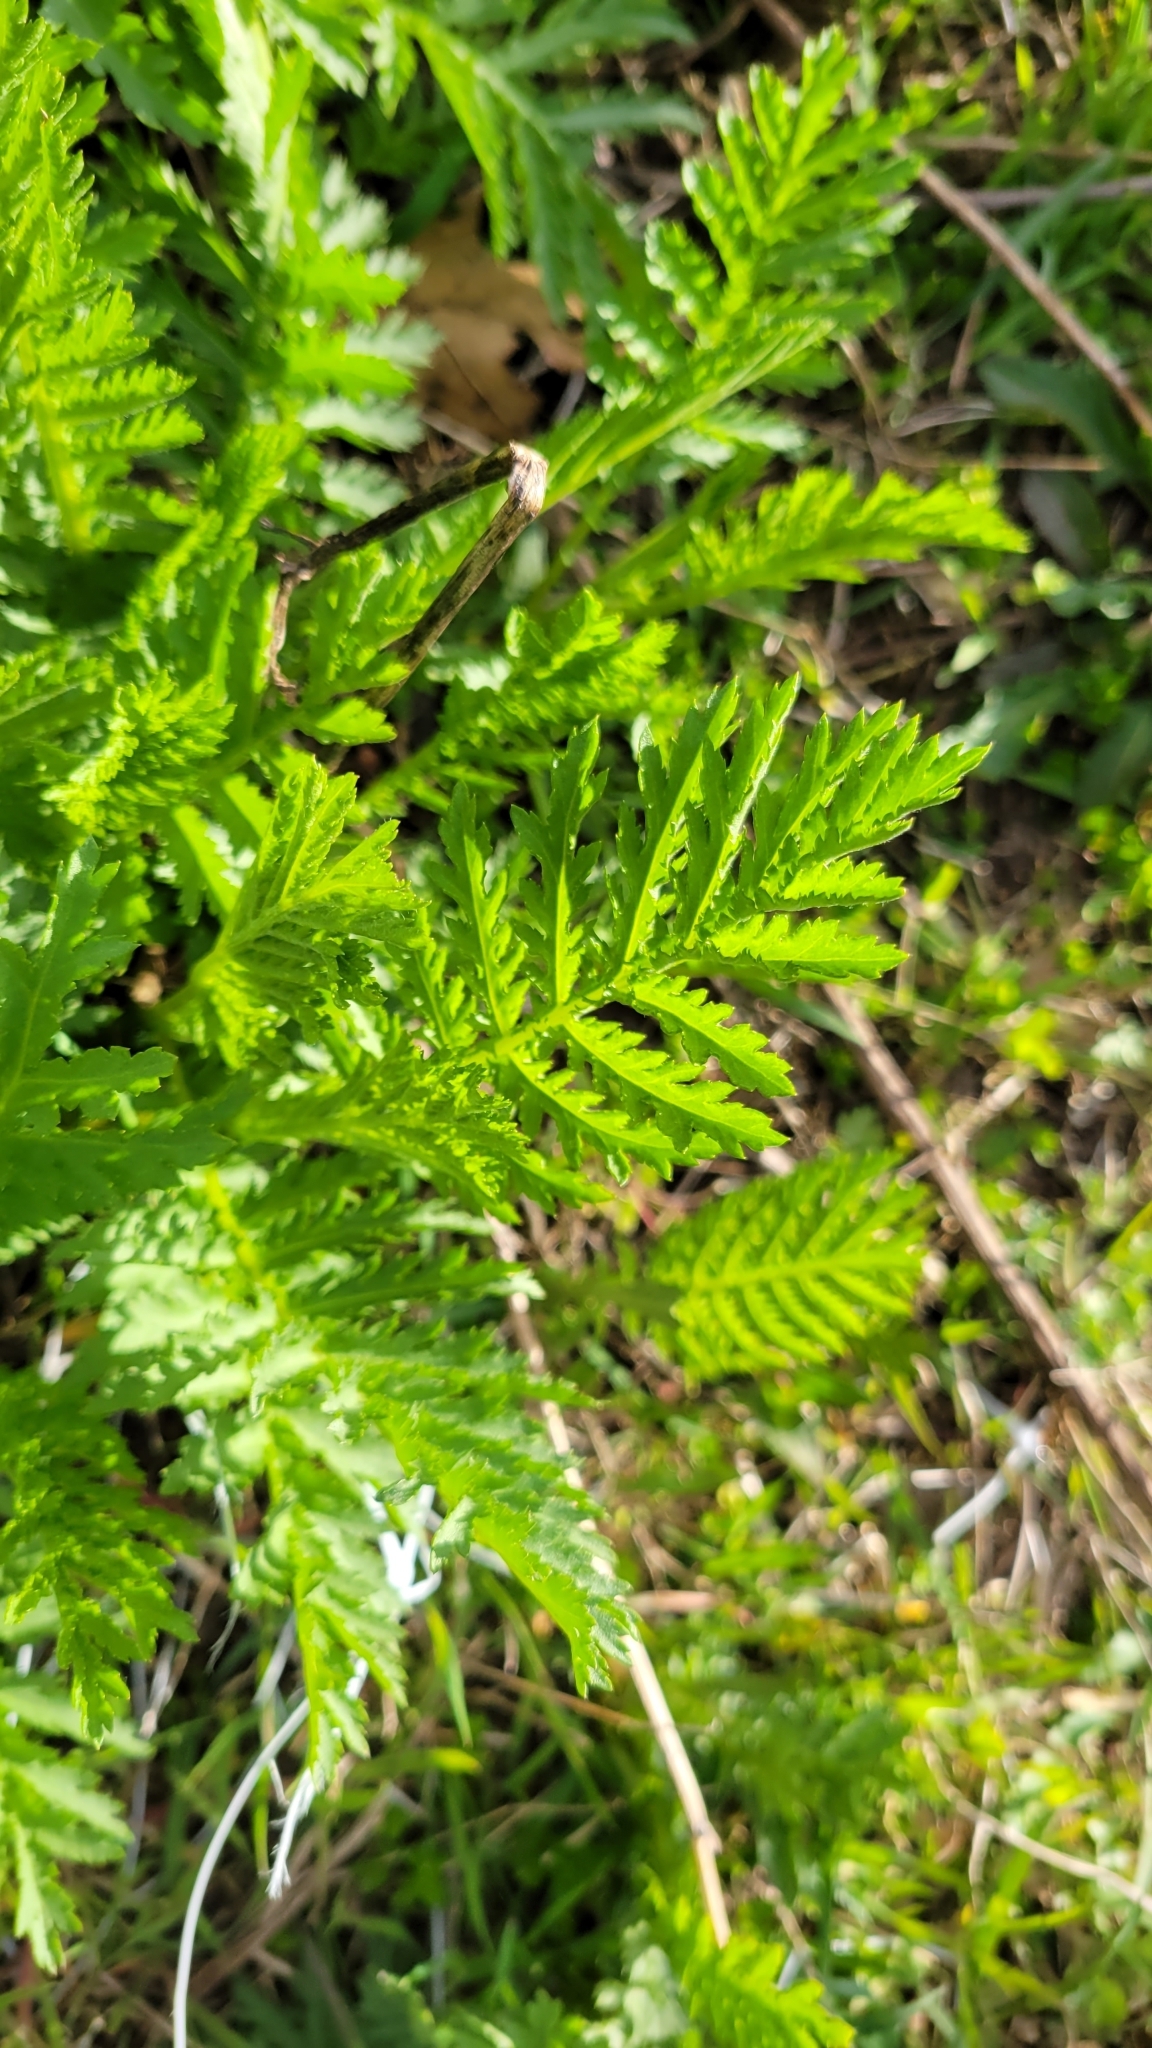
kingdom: Plantae
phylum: Tracheophyta
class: Magnoliopsida
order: Asterales
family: Asteraceae
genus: Tanacetum
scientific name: Tanacetum vulgare
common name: Common tansy
